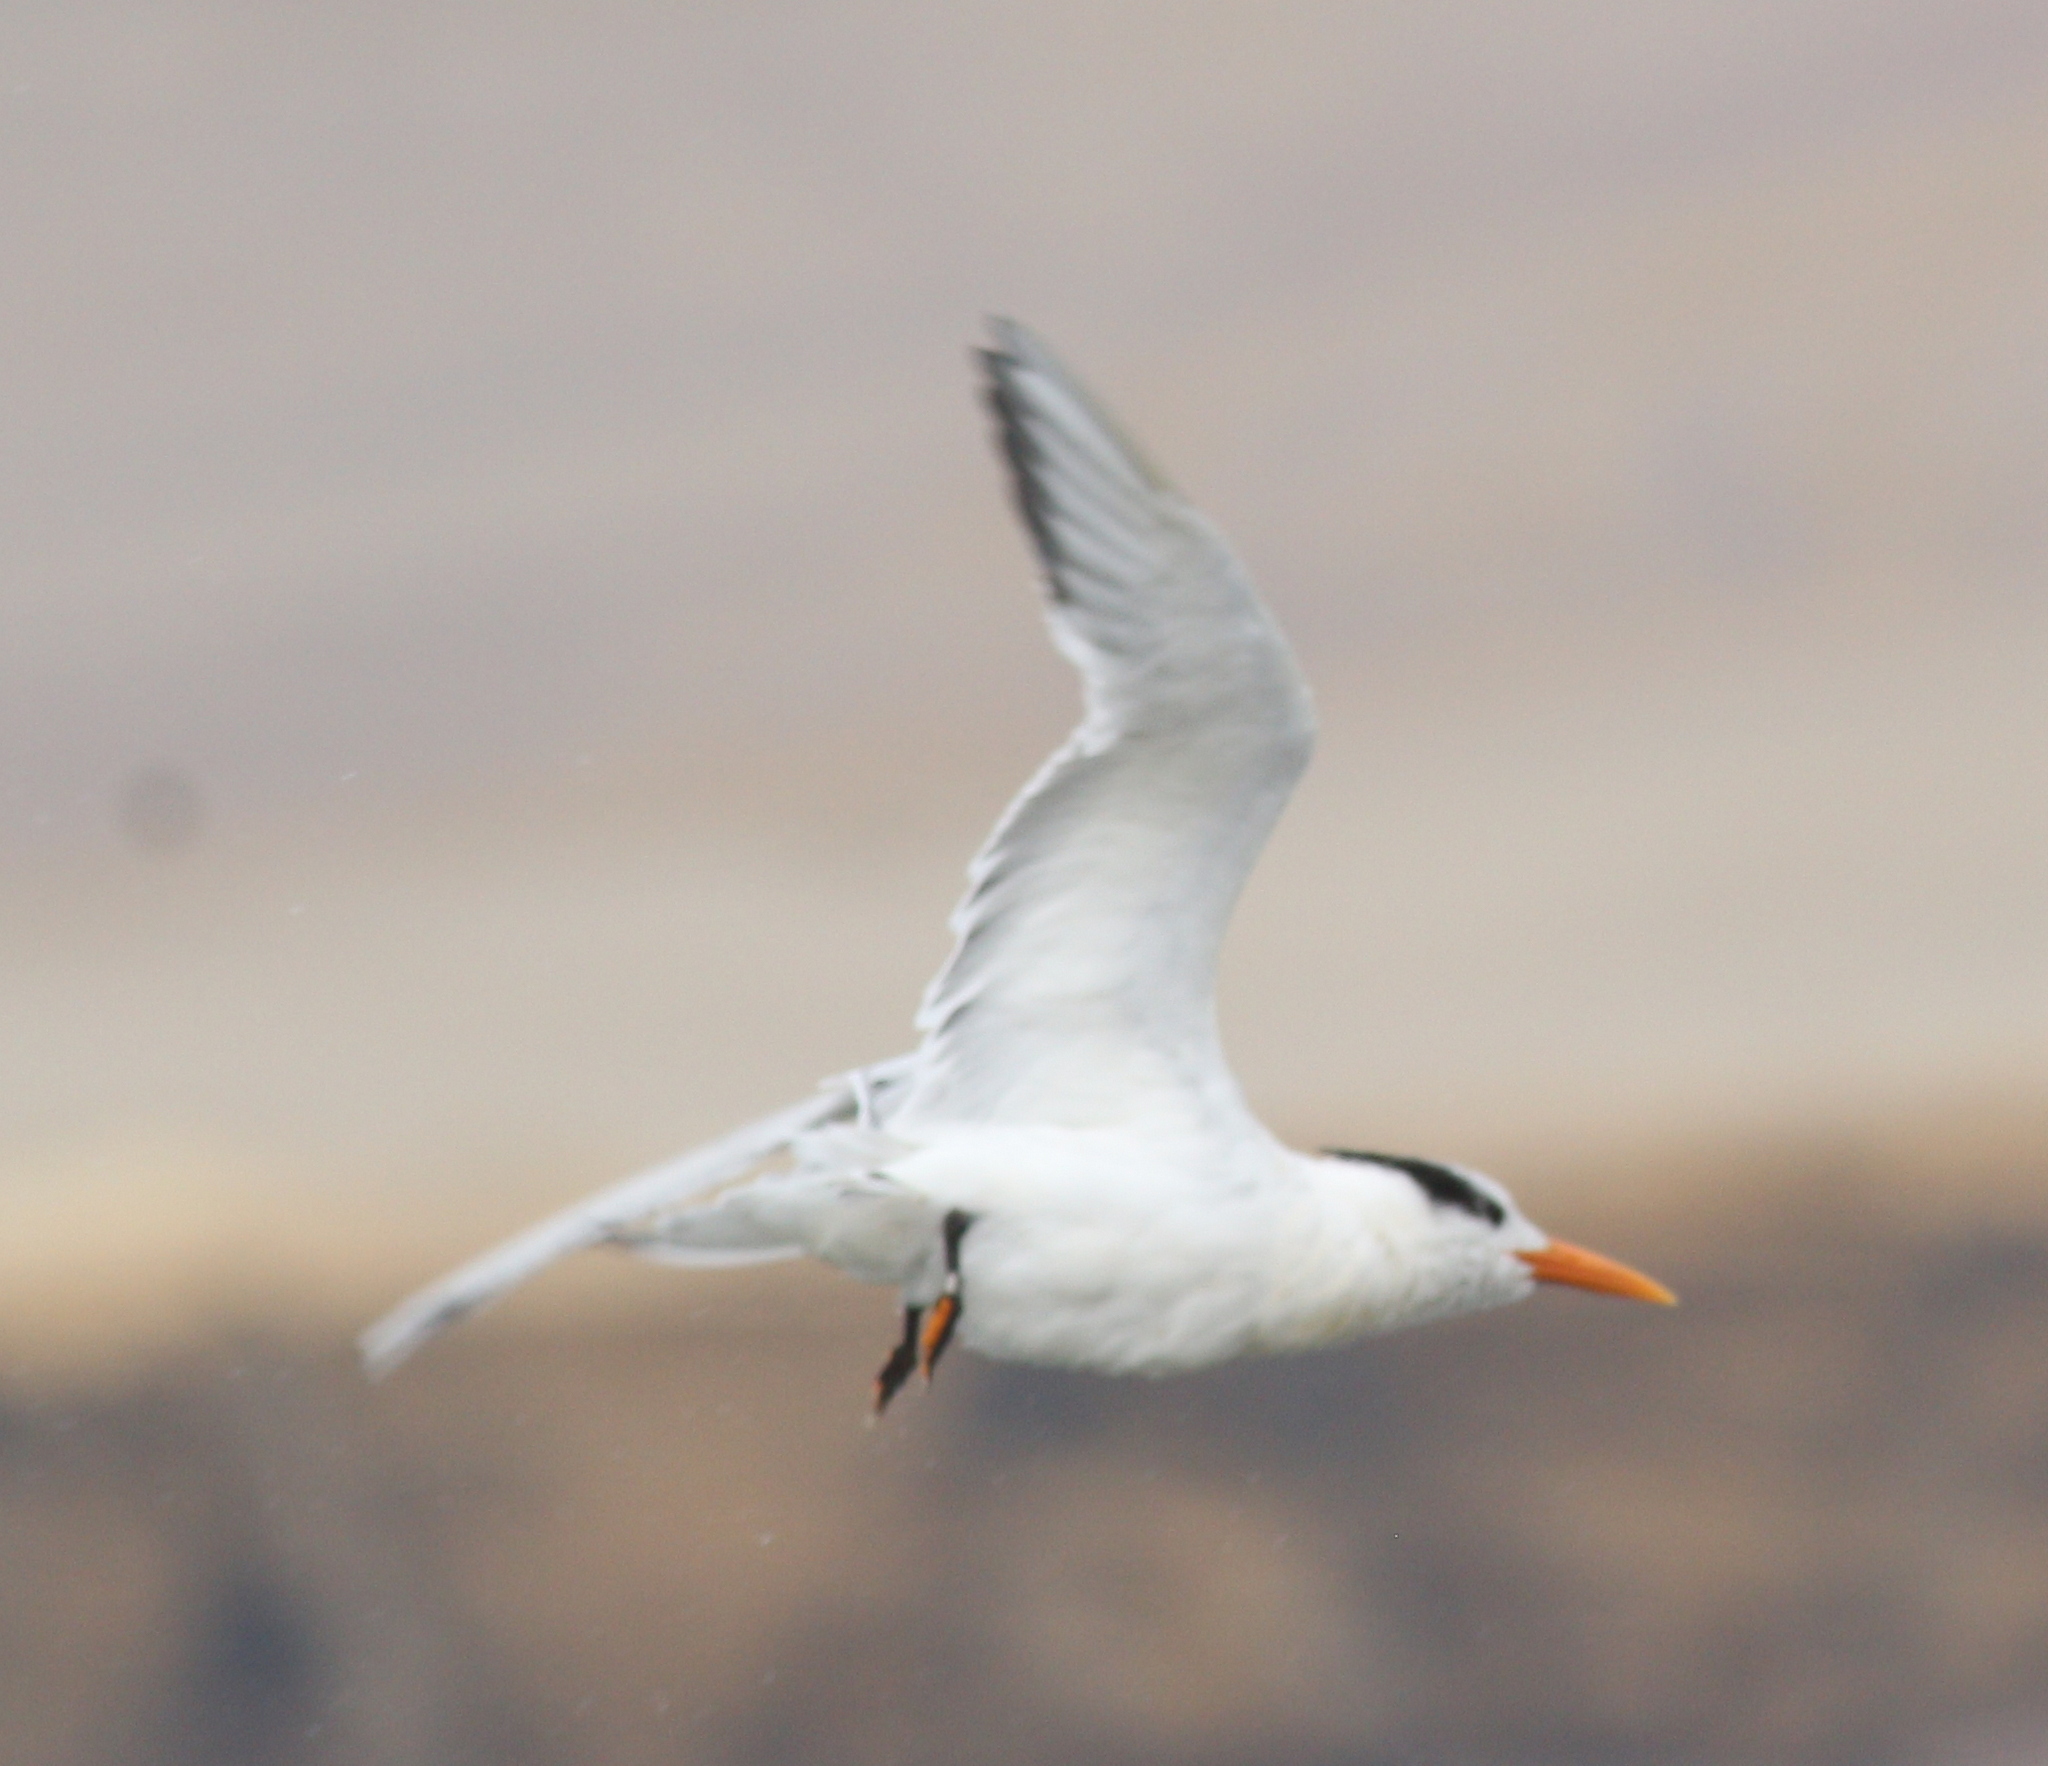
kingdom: Animalia
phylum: Chordata
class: Aves
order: Charadriiformes
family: Laridae
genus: Thalasseus
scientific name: Thalasseus maximus
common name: Royal tern
